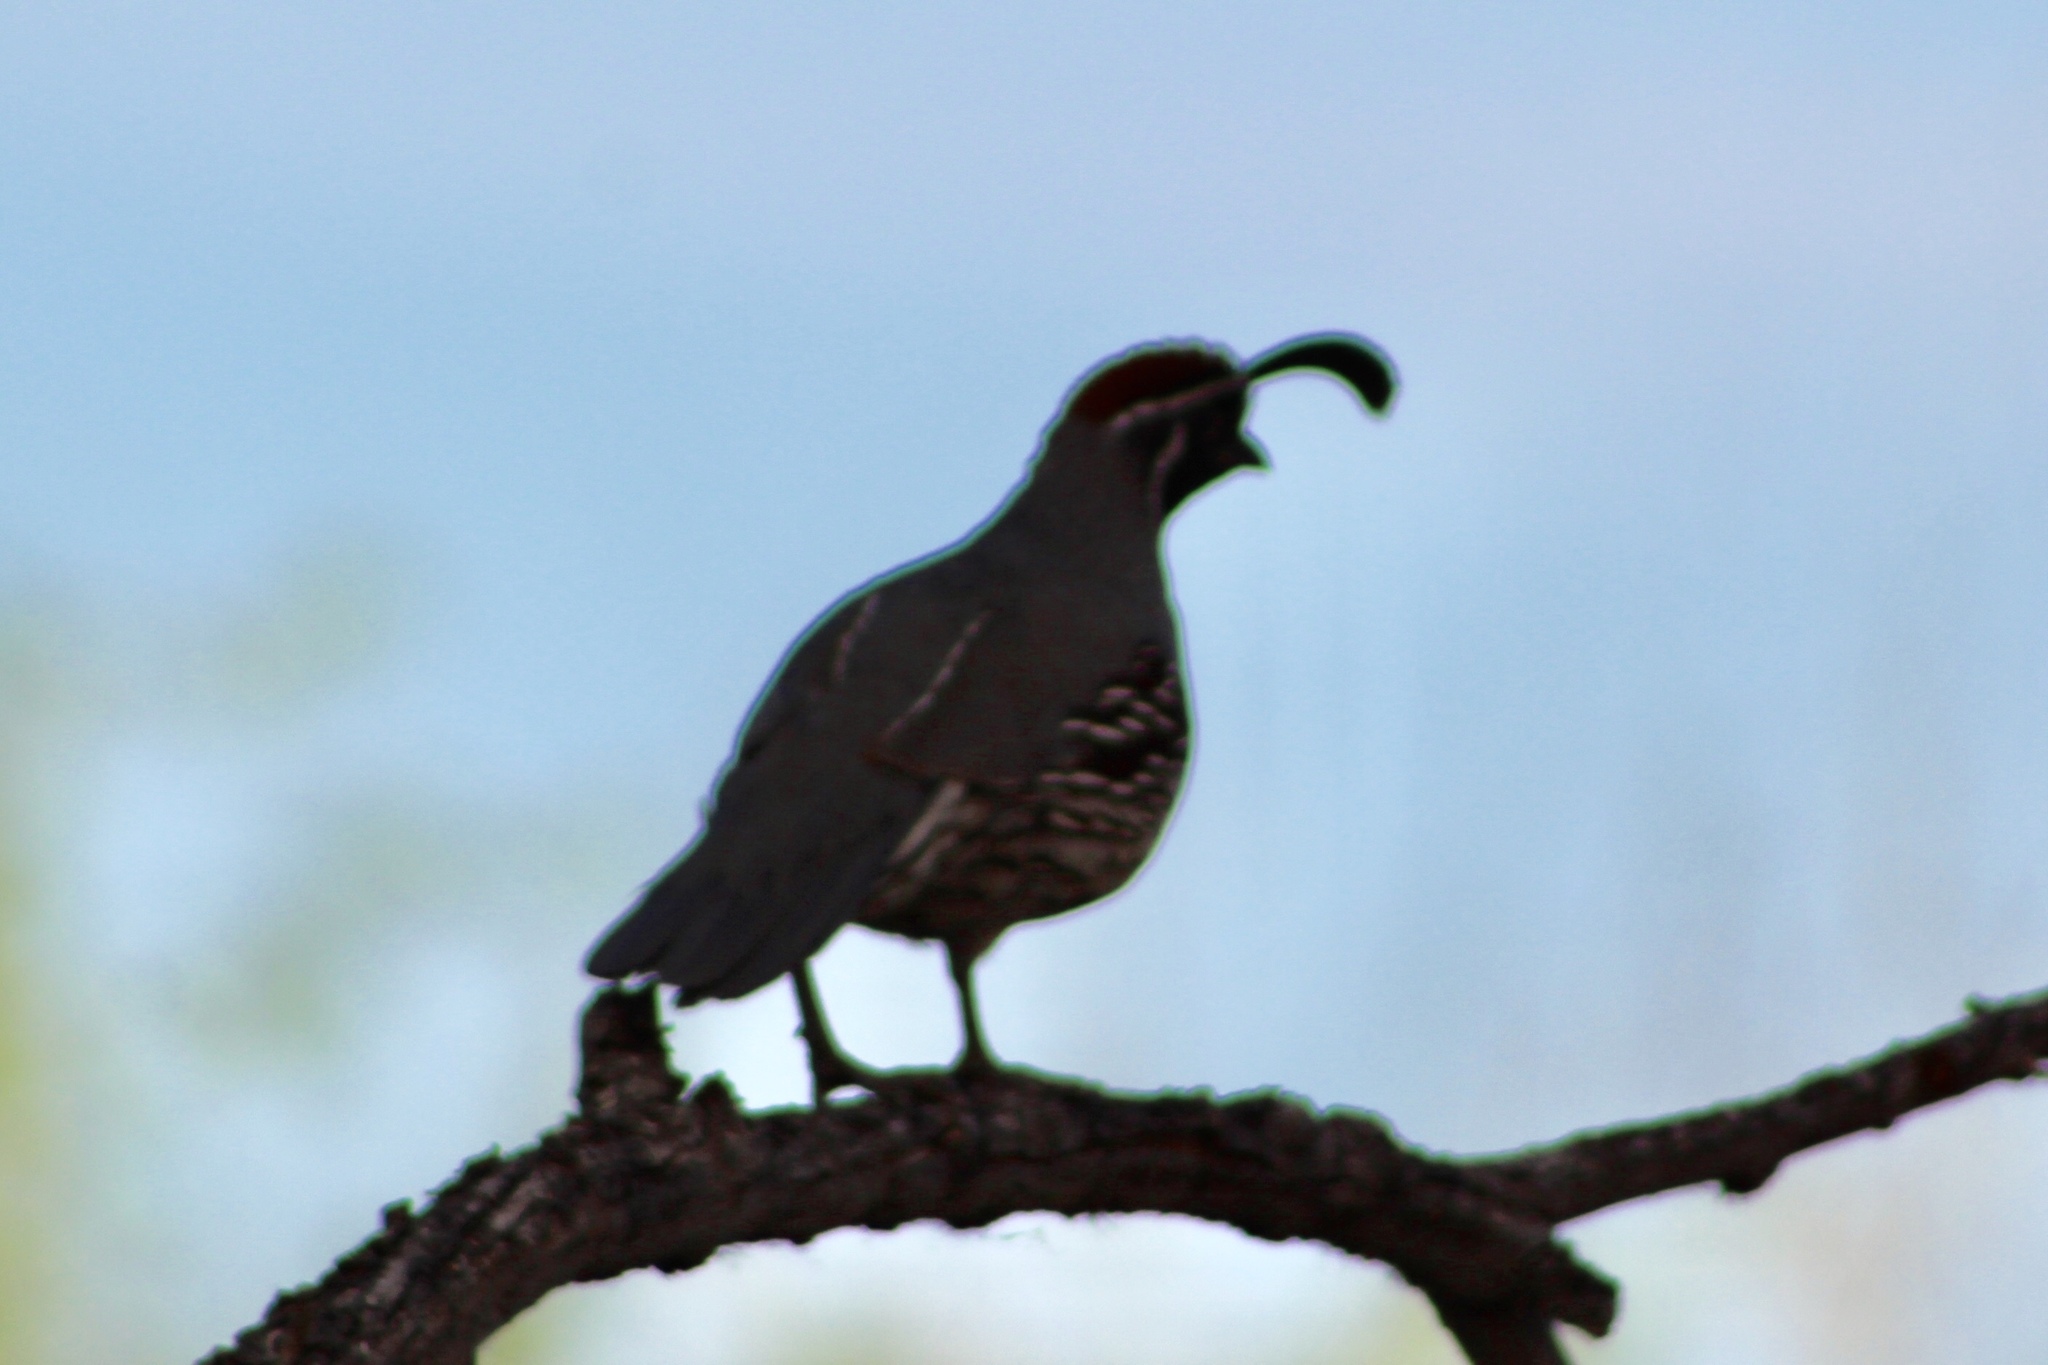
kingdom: Animalia
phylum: Chordata
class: Aves
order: Galliformes
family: Odontophoridae
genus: Callipepla
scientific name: Callipepla gambelii
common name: Gambel's quail
